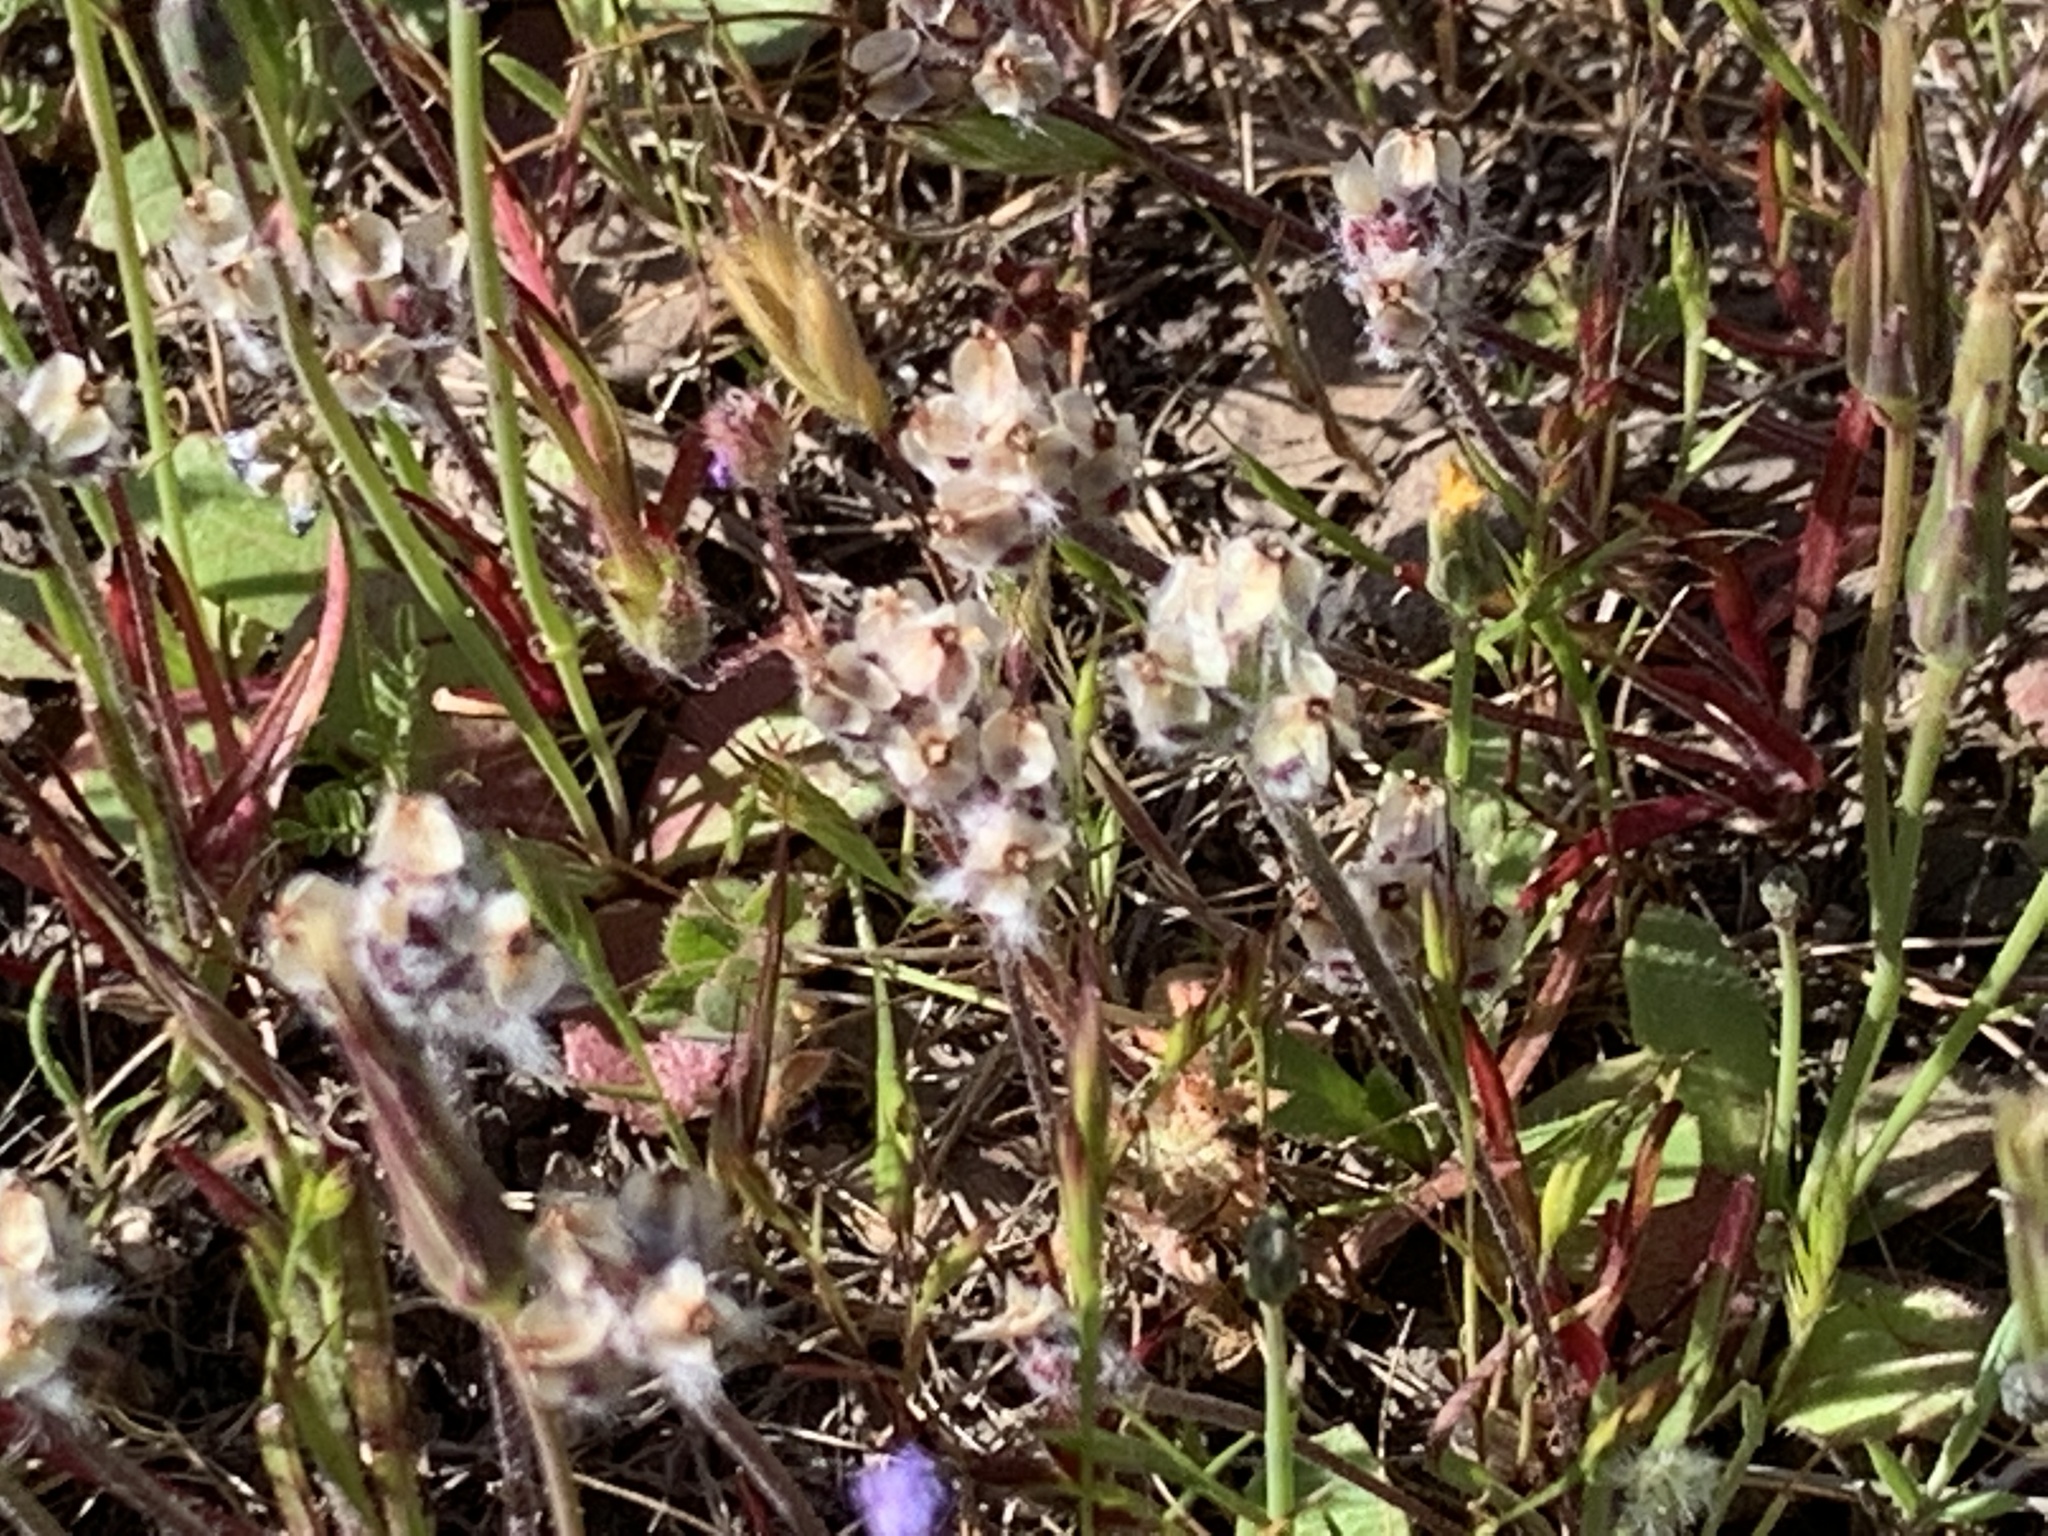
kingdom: Plantae
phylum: Tracheophyta
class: Magnoliopsida
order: Lamiales
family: Plantaginaceae
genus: Plantago
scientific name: Plantago erecta
